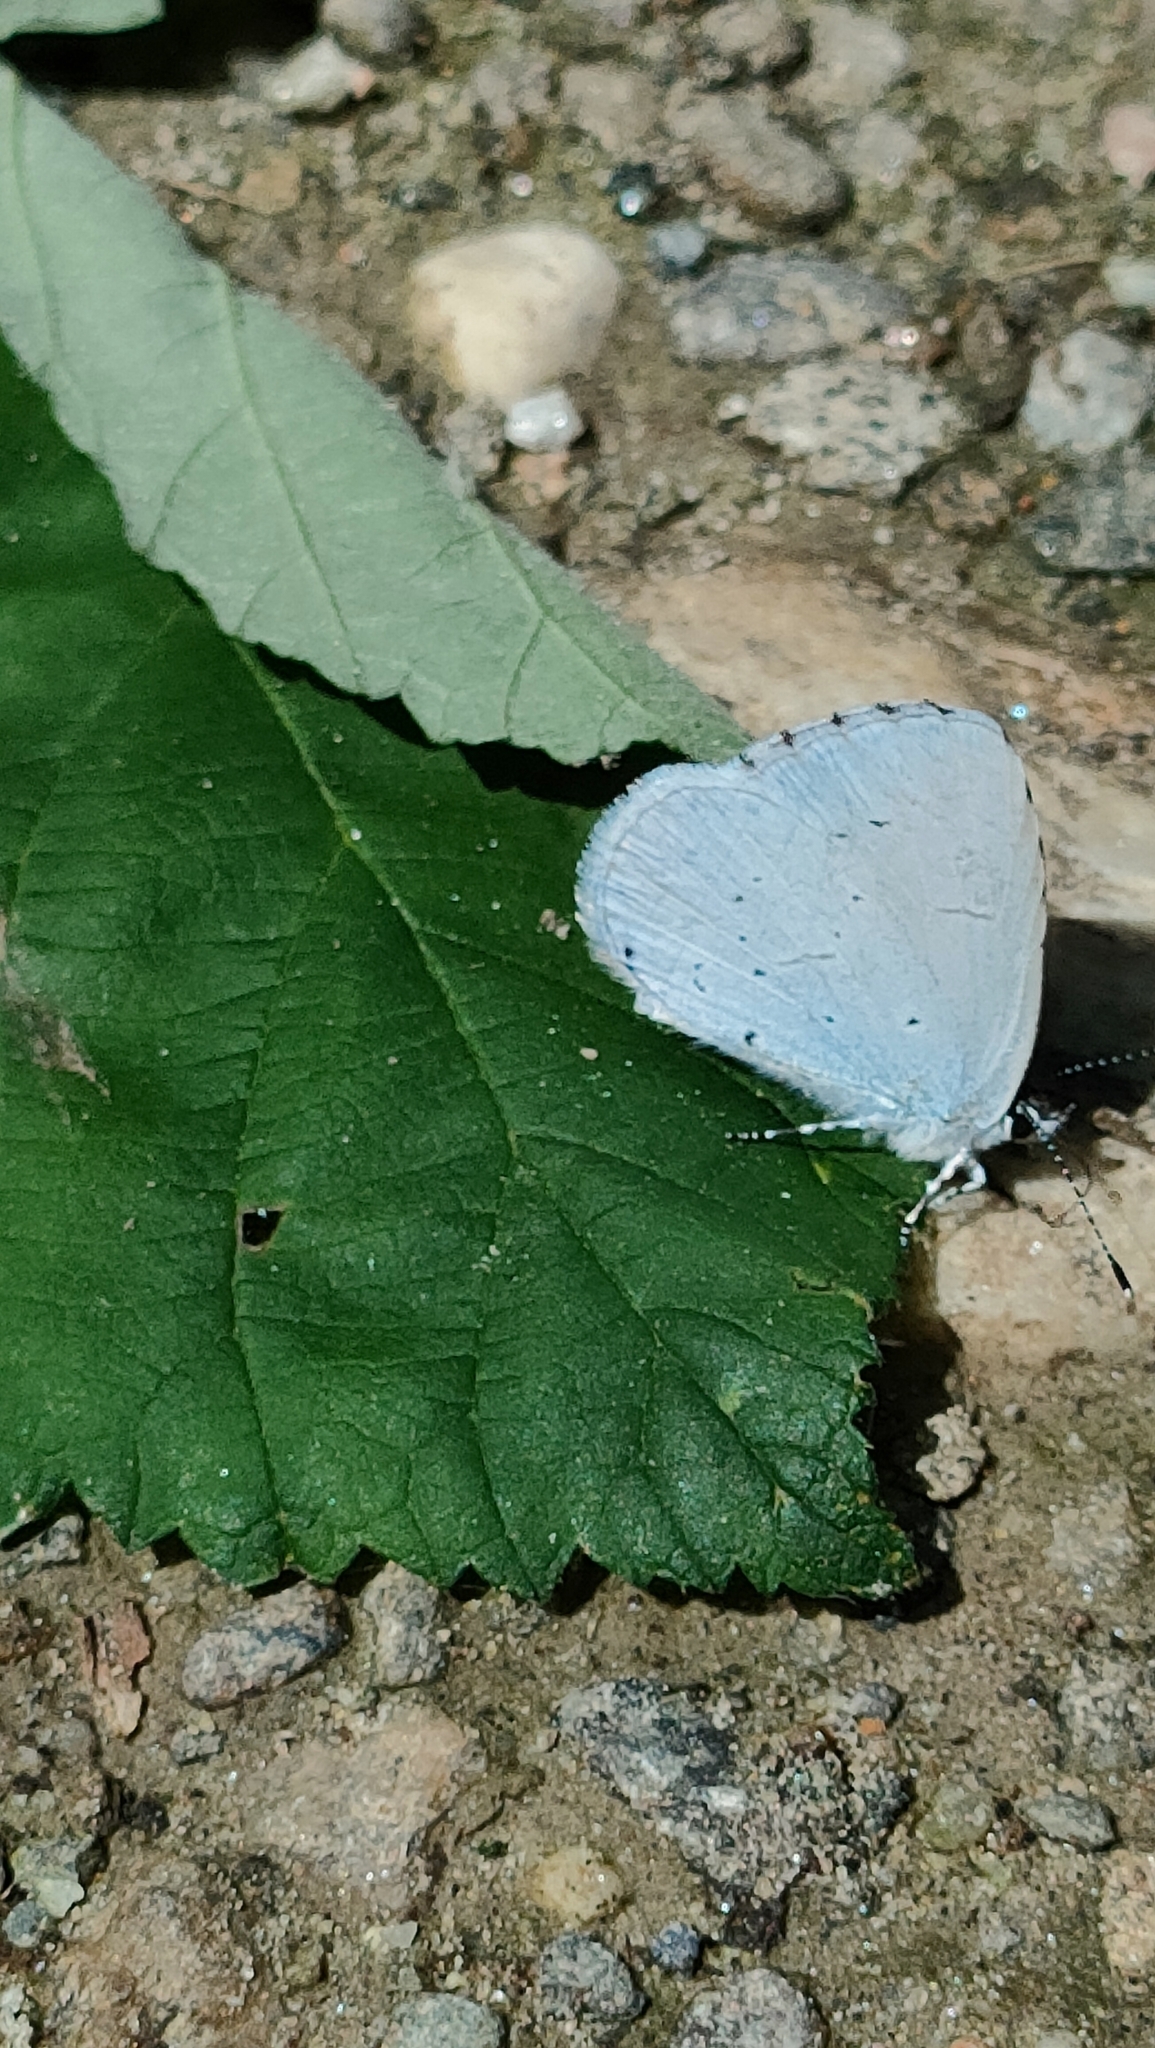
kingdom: Animalia
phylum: Arthropoda
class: Insecta
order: Lepidoptera
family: Lycaenidae
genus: Celastrina
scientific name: Celastrina argiolus
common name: Holly blue
